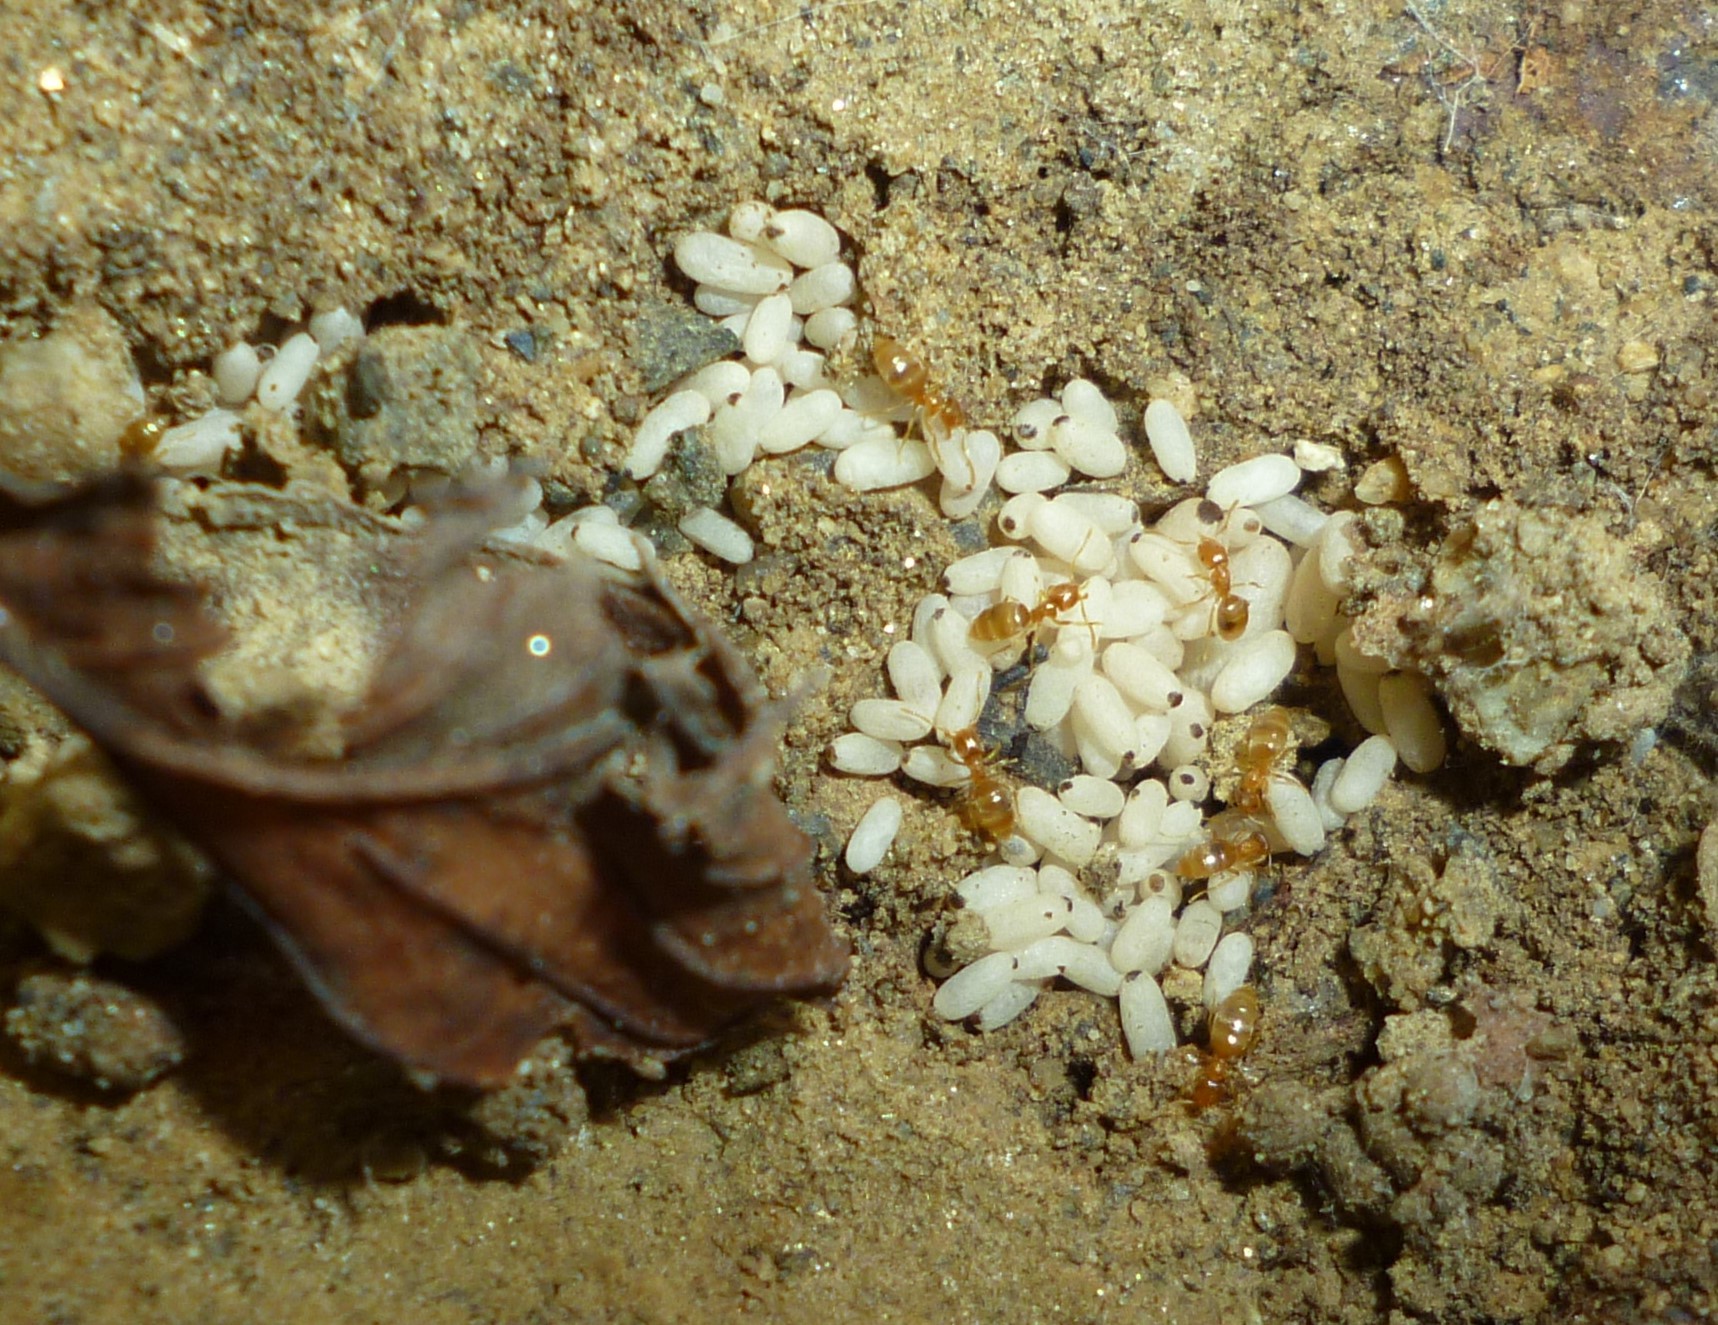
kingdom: Animalia
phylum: Arthropoda
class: Insecta
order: Hymenoptera
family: Formicidae
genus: Brachymyrmex
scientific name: Brachymyrmex depilis
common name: Hairless rover ant
